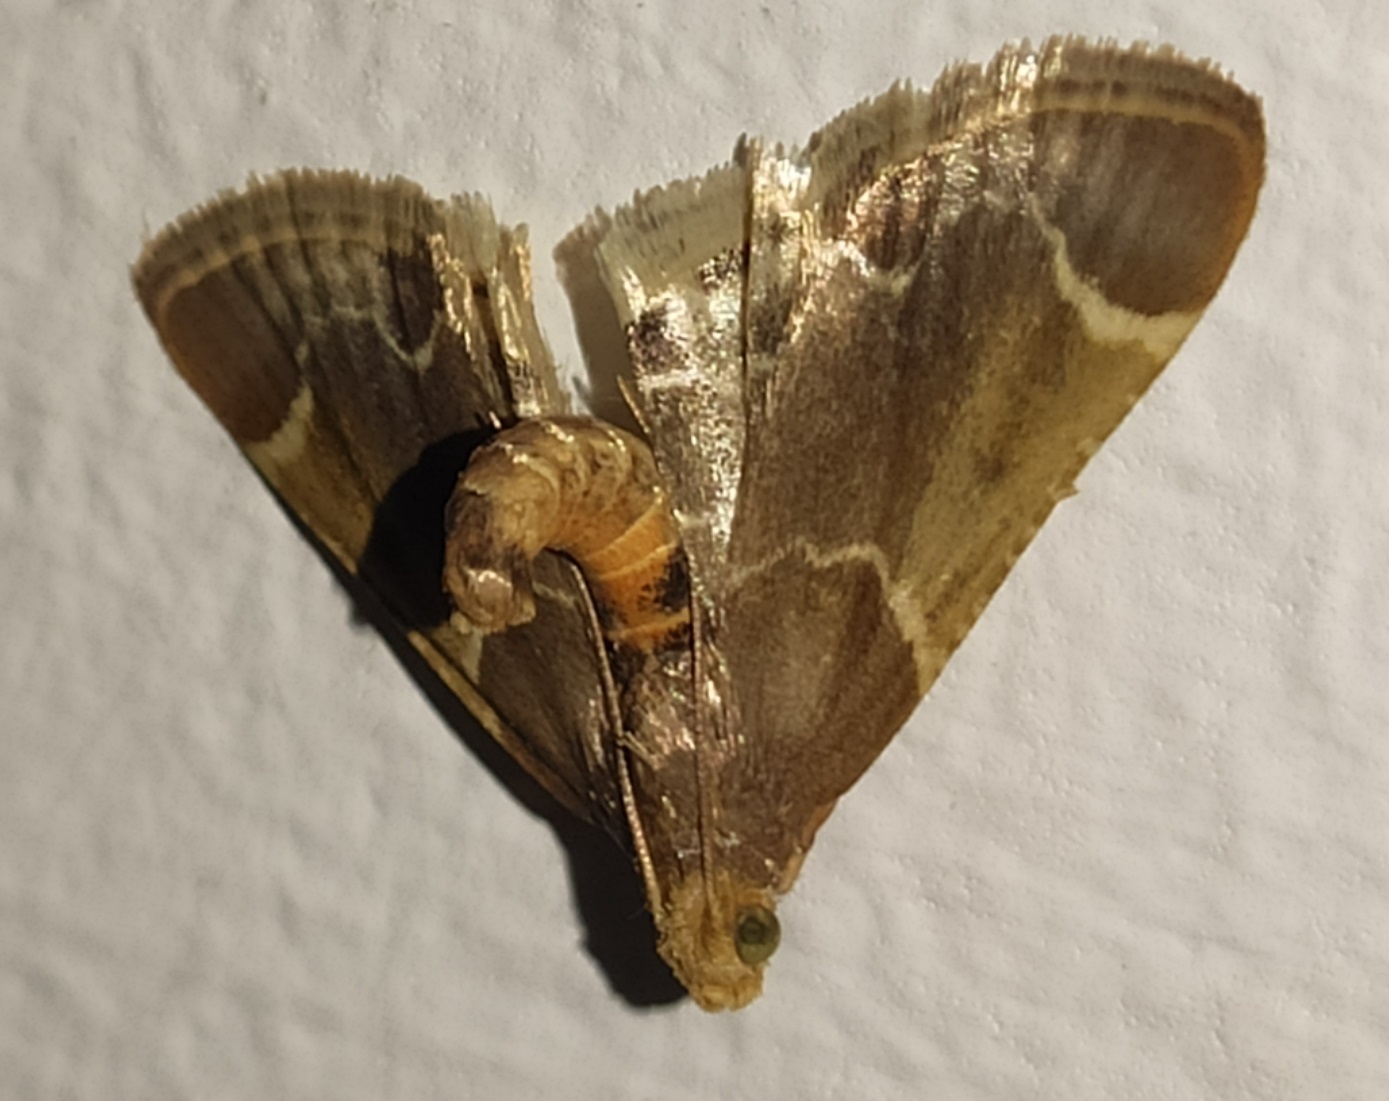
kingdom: Animalia
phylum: Arthropoda
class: Insecta
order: Lepidoptera
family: Pyralidae
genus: Pyralis
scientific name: Pyralis farinalis
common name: Meal moth
